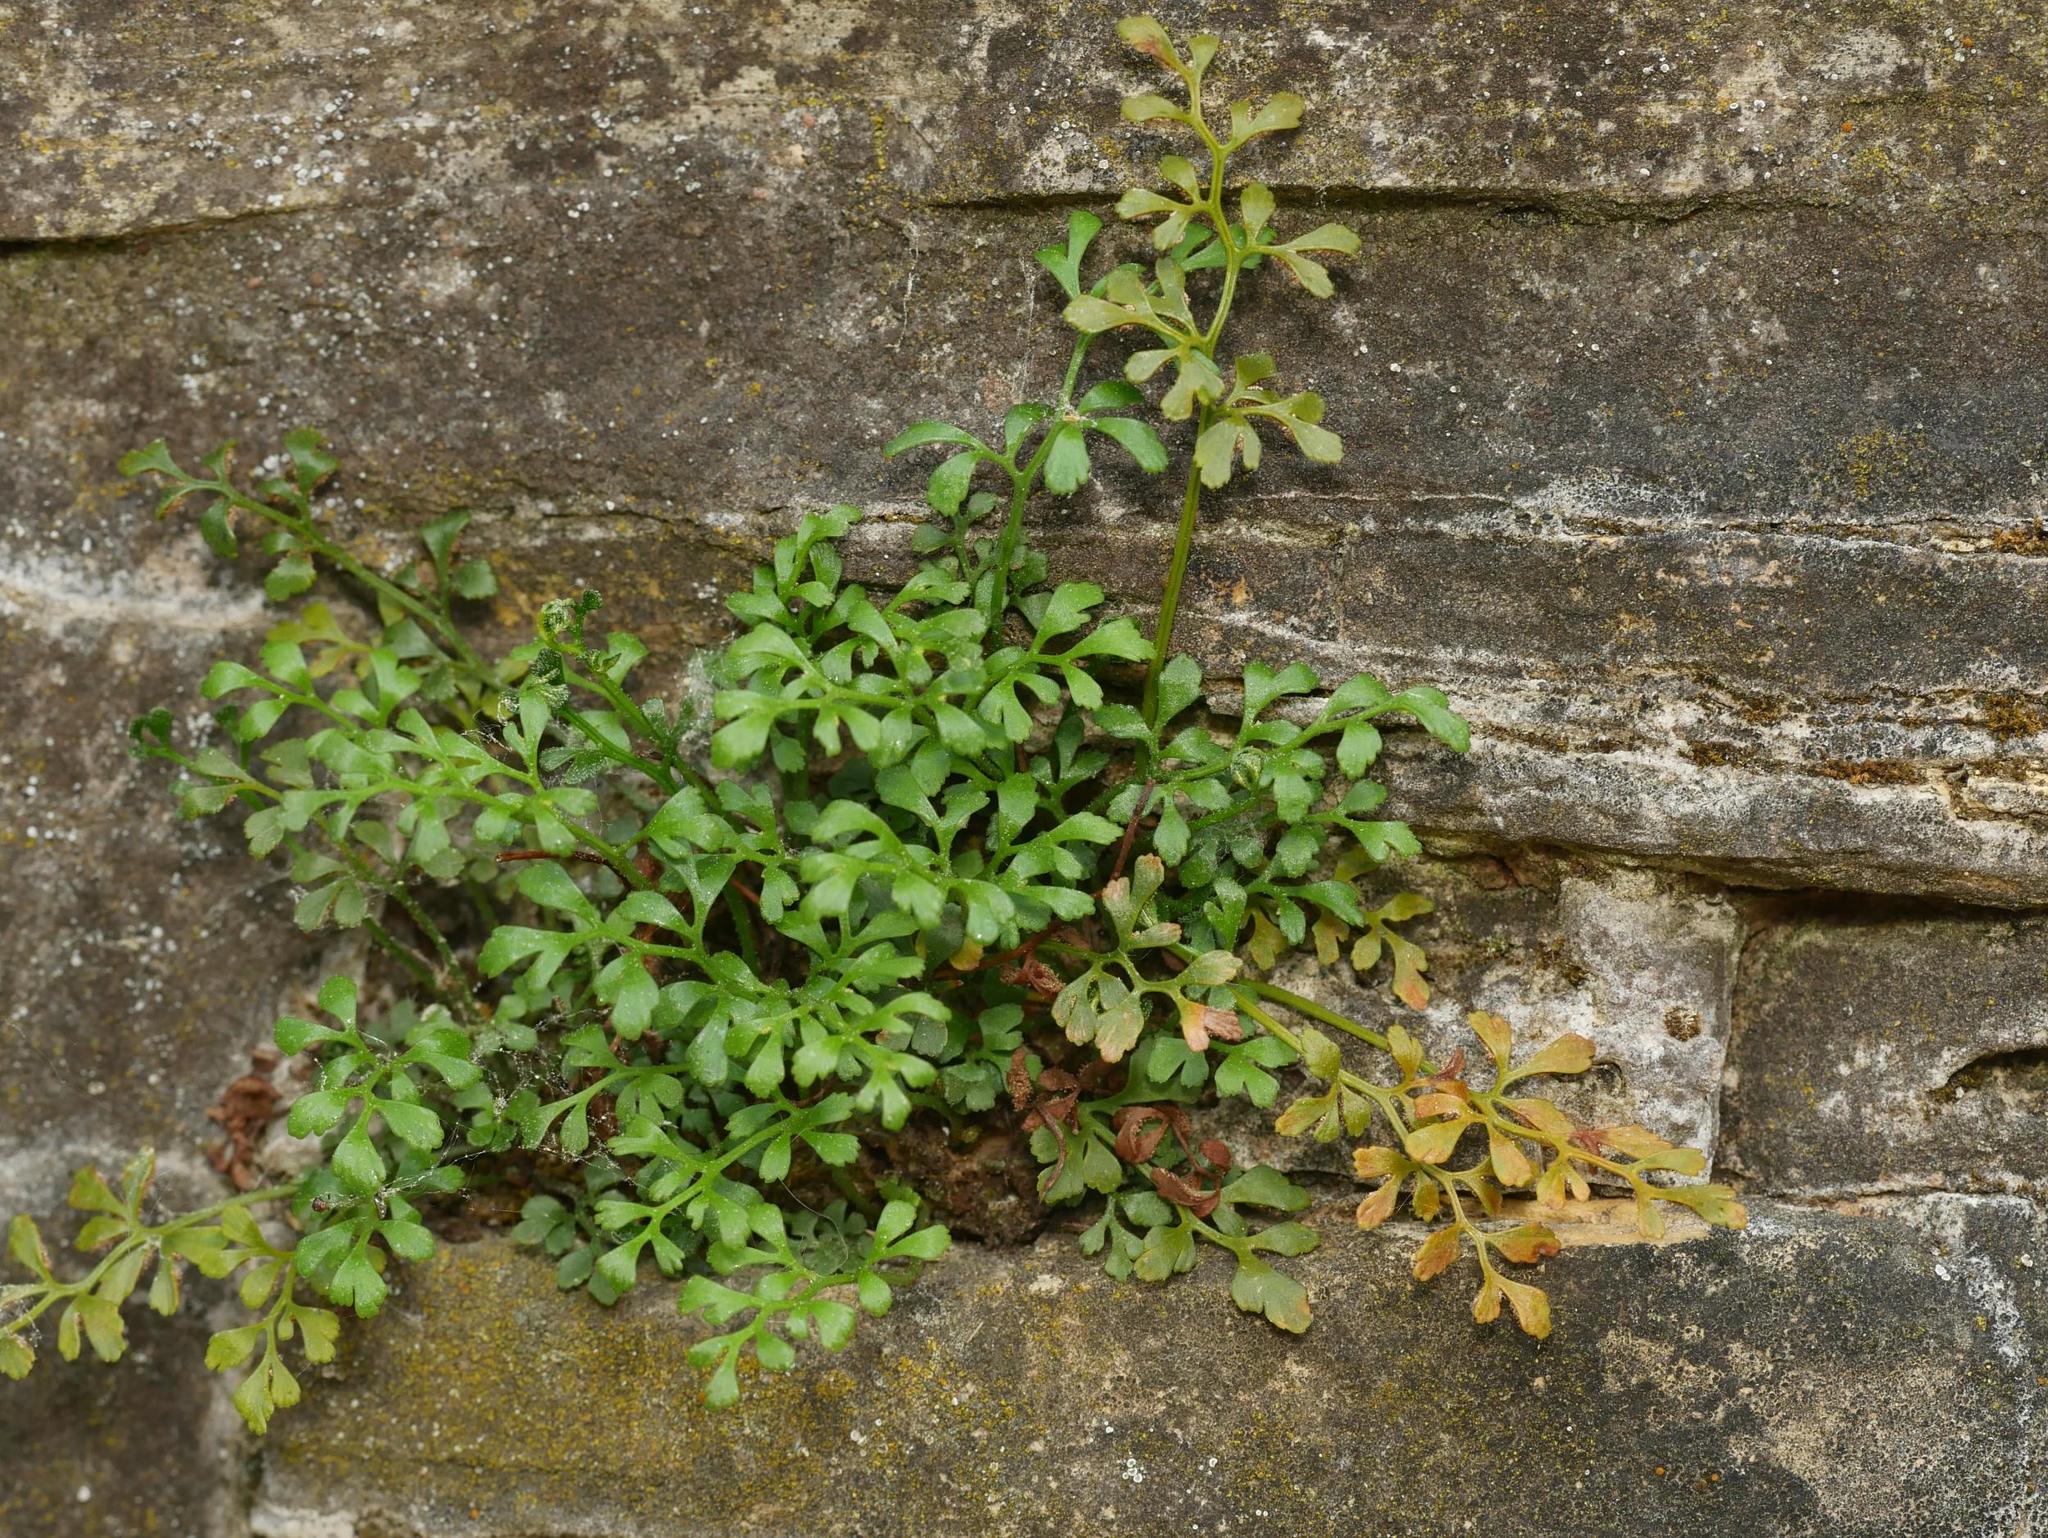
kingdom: Plantae
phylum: Tracheophyta
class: Polypodiopsida
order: Polypodiales
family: Aspleniaceae
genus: Asplenium
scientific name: Asplenium ruta-muraria
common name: Wall-rue
